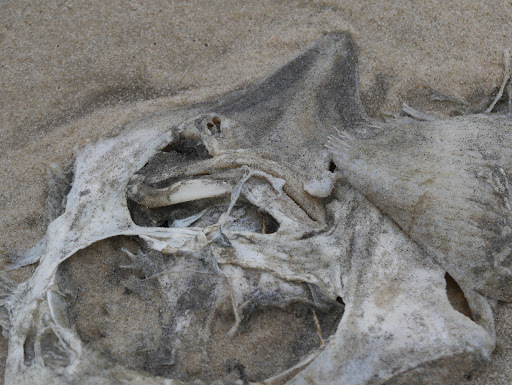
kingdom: Animalia
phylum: Chordata
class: Elasmobranchii
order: Rajiformes
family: Rajidae
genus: Raja
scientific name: Raja eglanteria
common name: Clearnose skate
